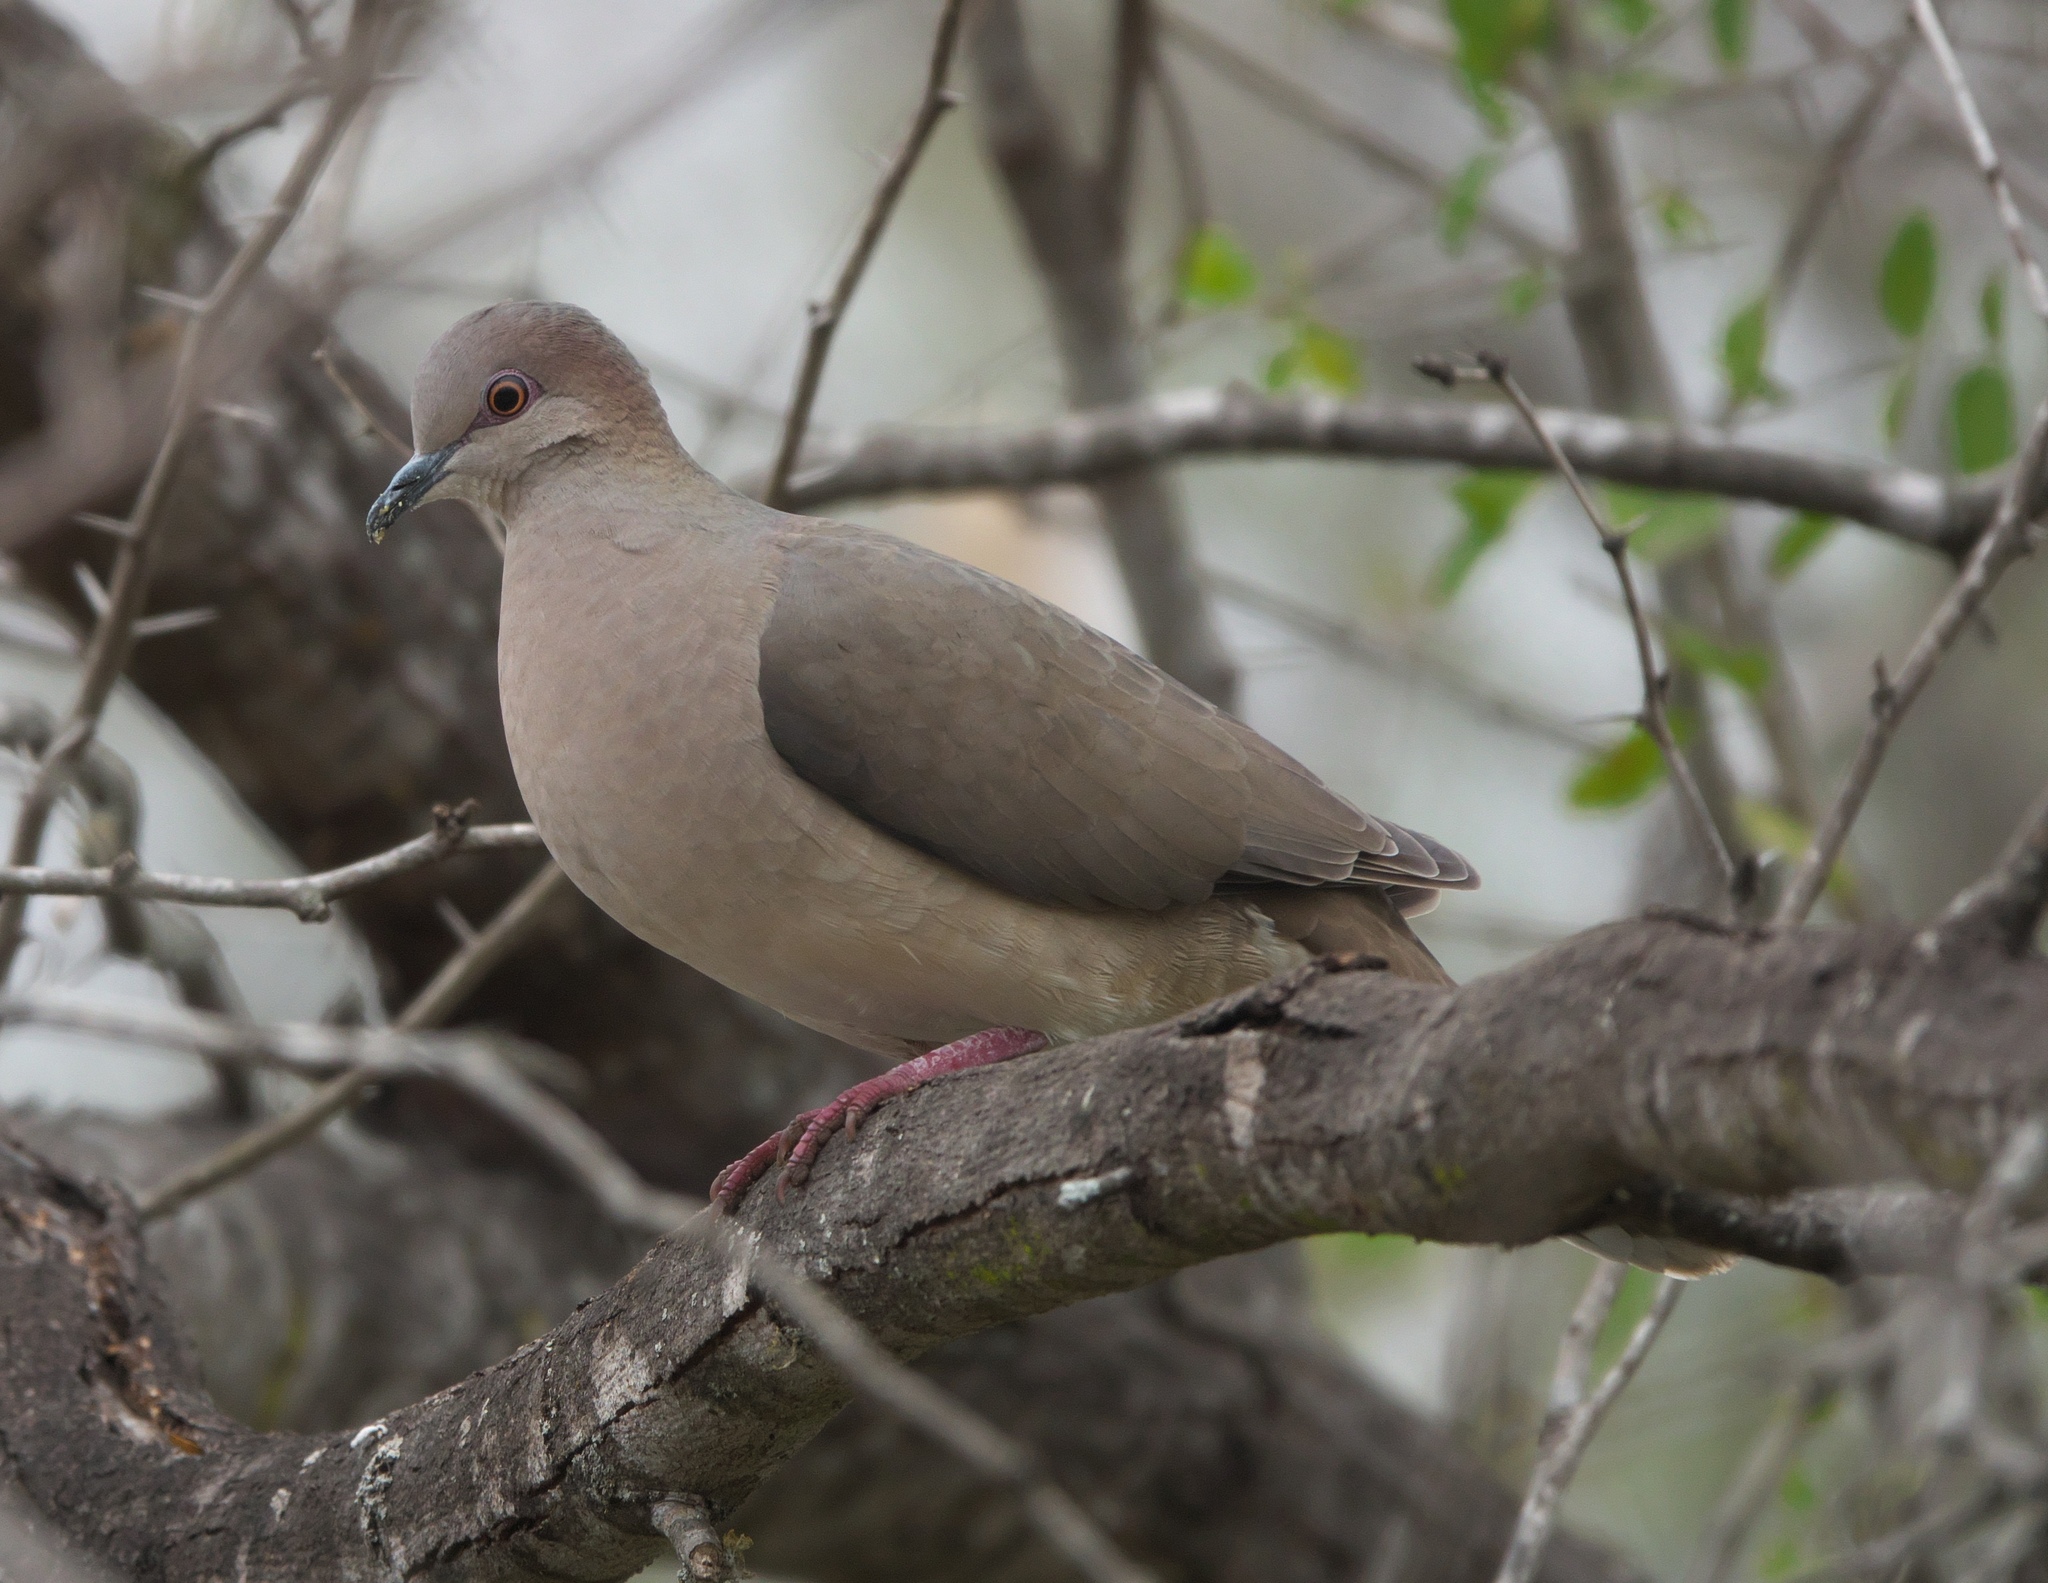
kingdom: Animalia
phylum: Chordata
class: Aves
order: Columbiformes
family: Columbidae
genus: Leptotila
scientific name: Leptotila verreauxi
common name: White-tipped dove
